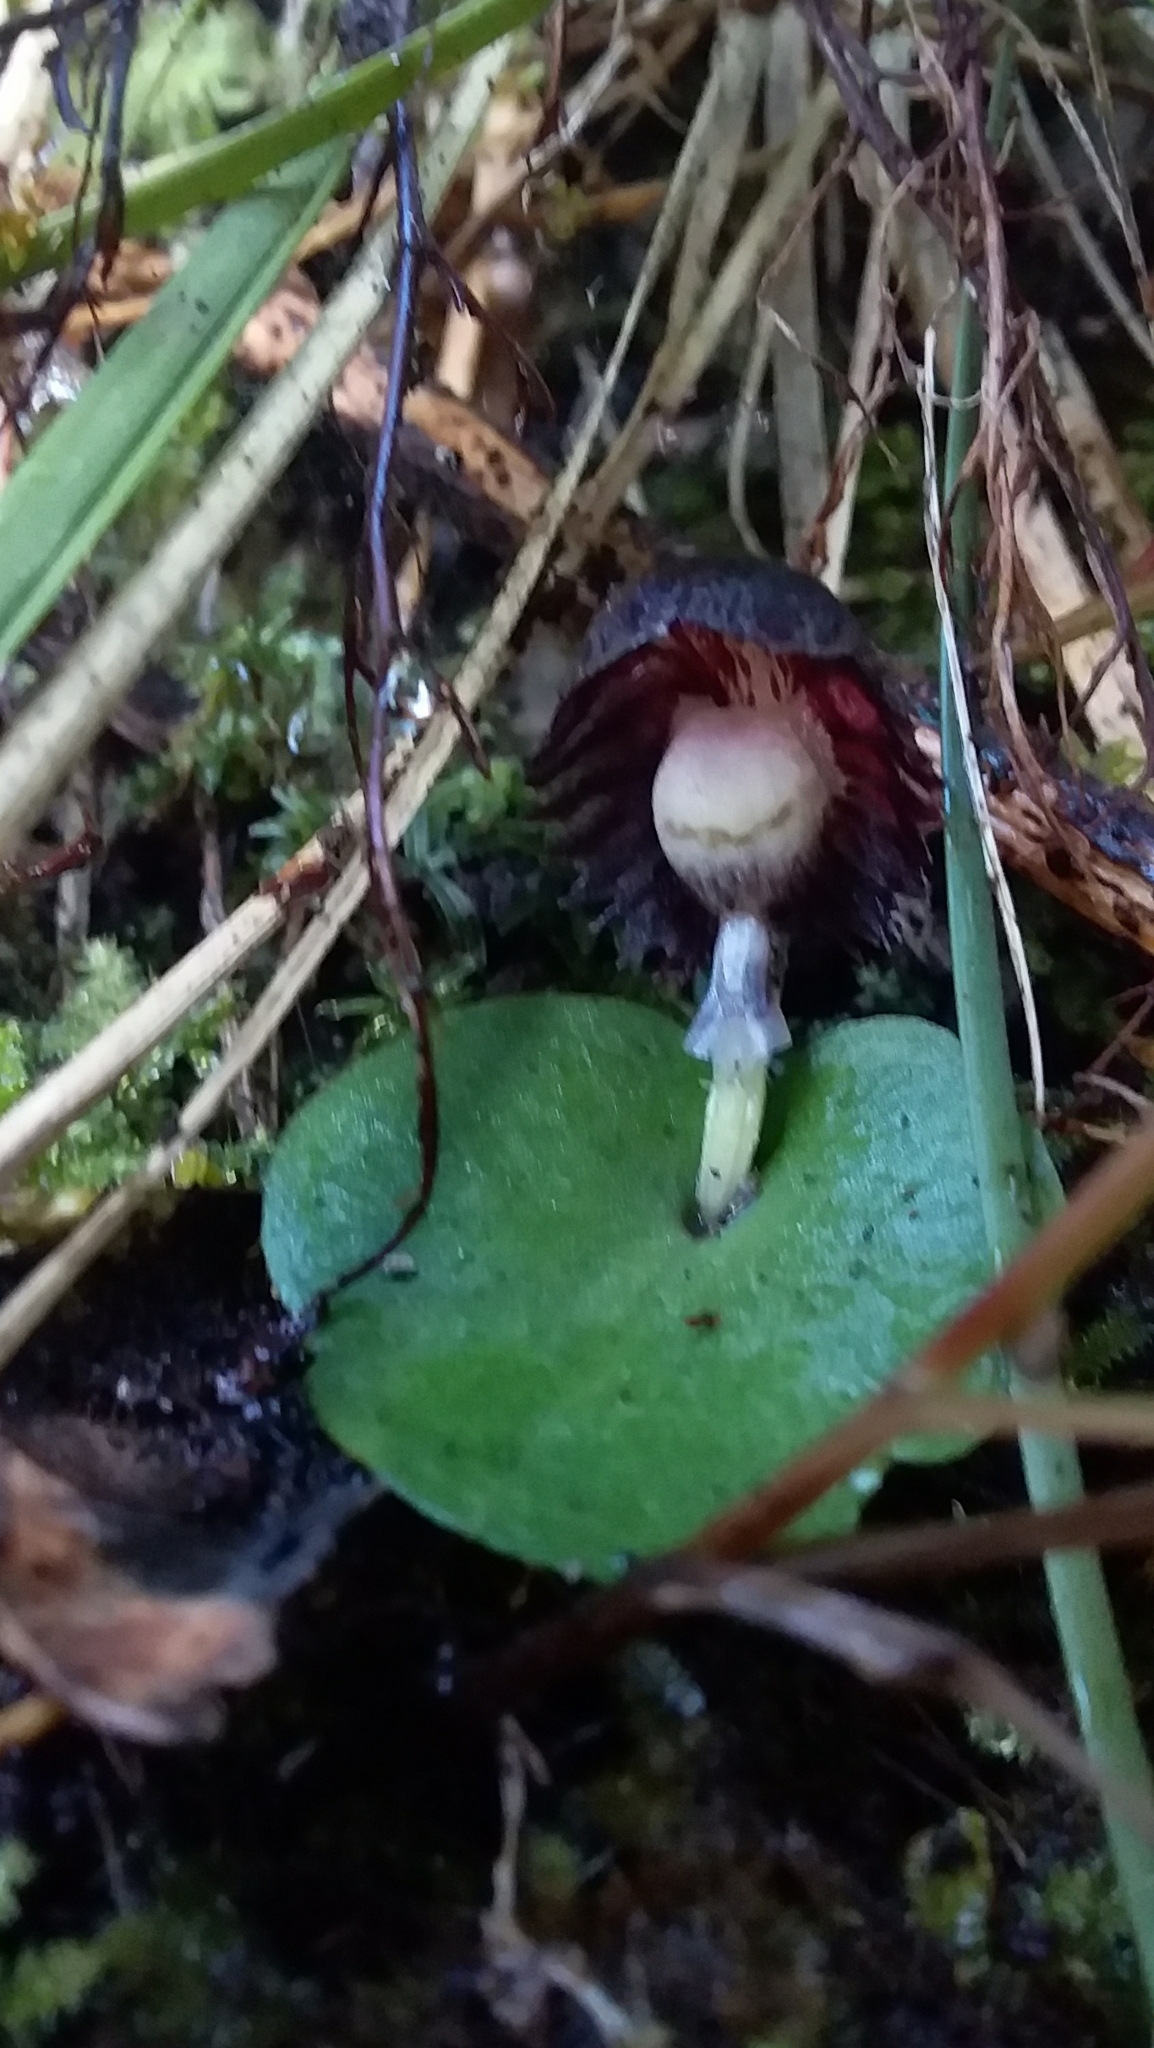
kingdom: Plantae
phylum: Tracheophyta
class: Liliopsida
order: Asparagales
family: Orchidaceae
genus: Corybas
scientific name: Corybas diemenicus
